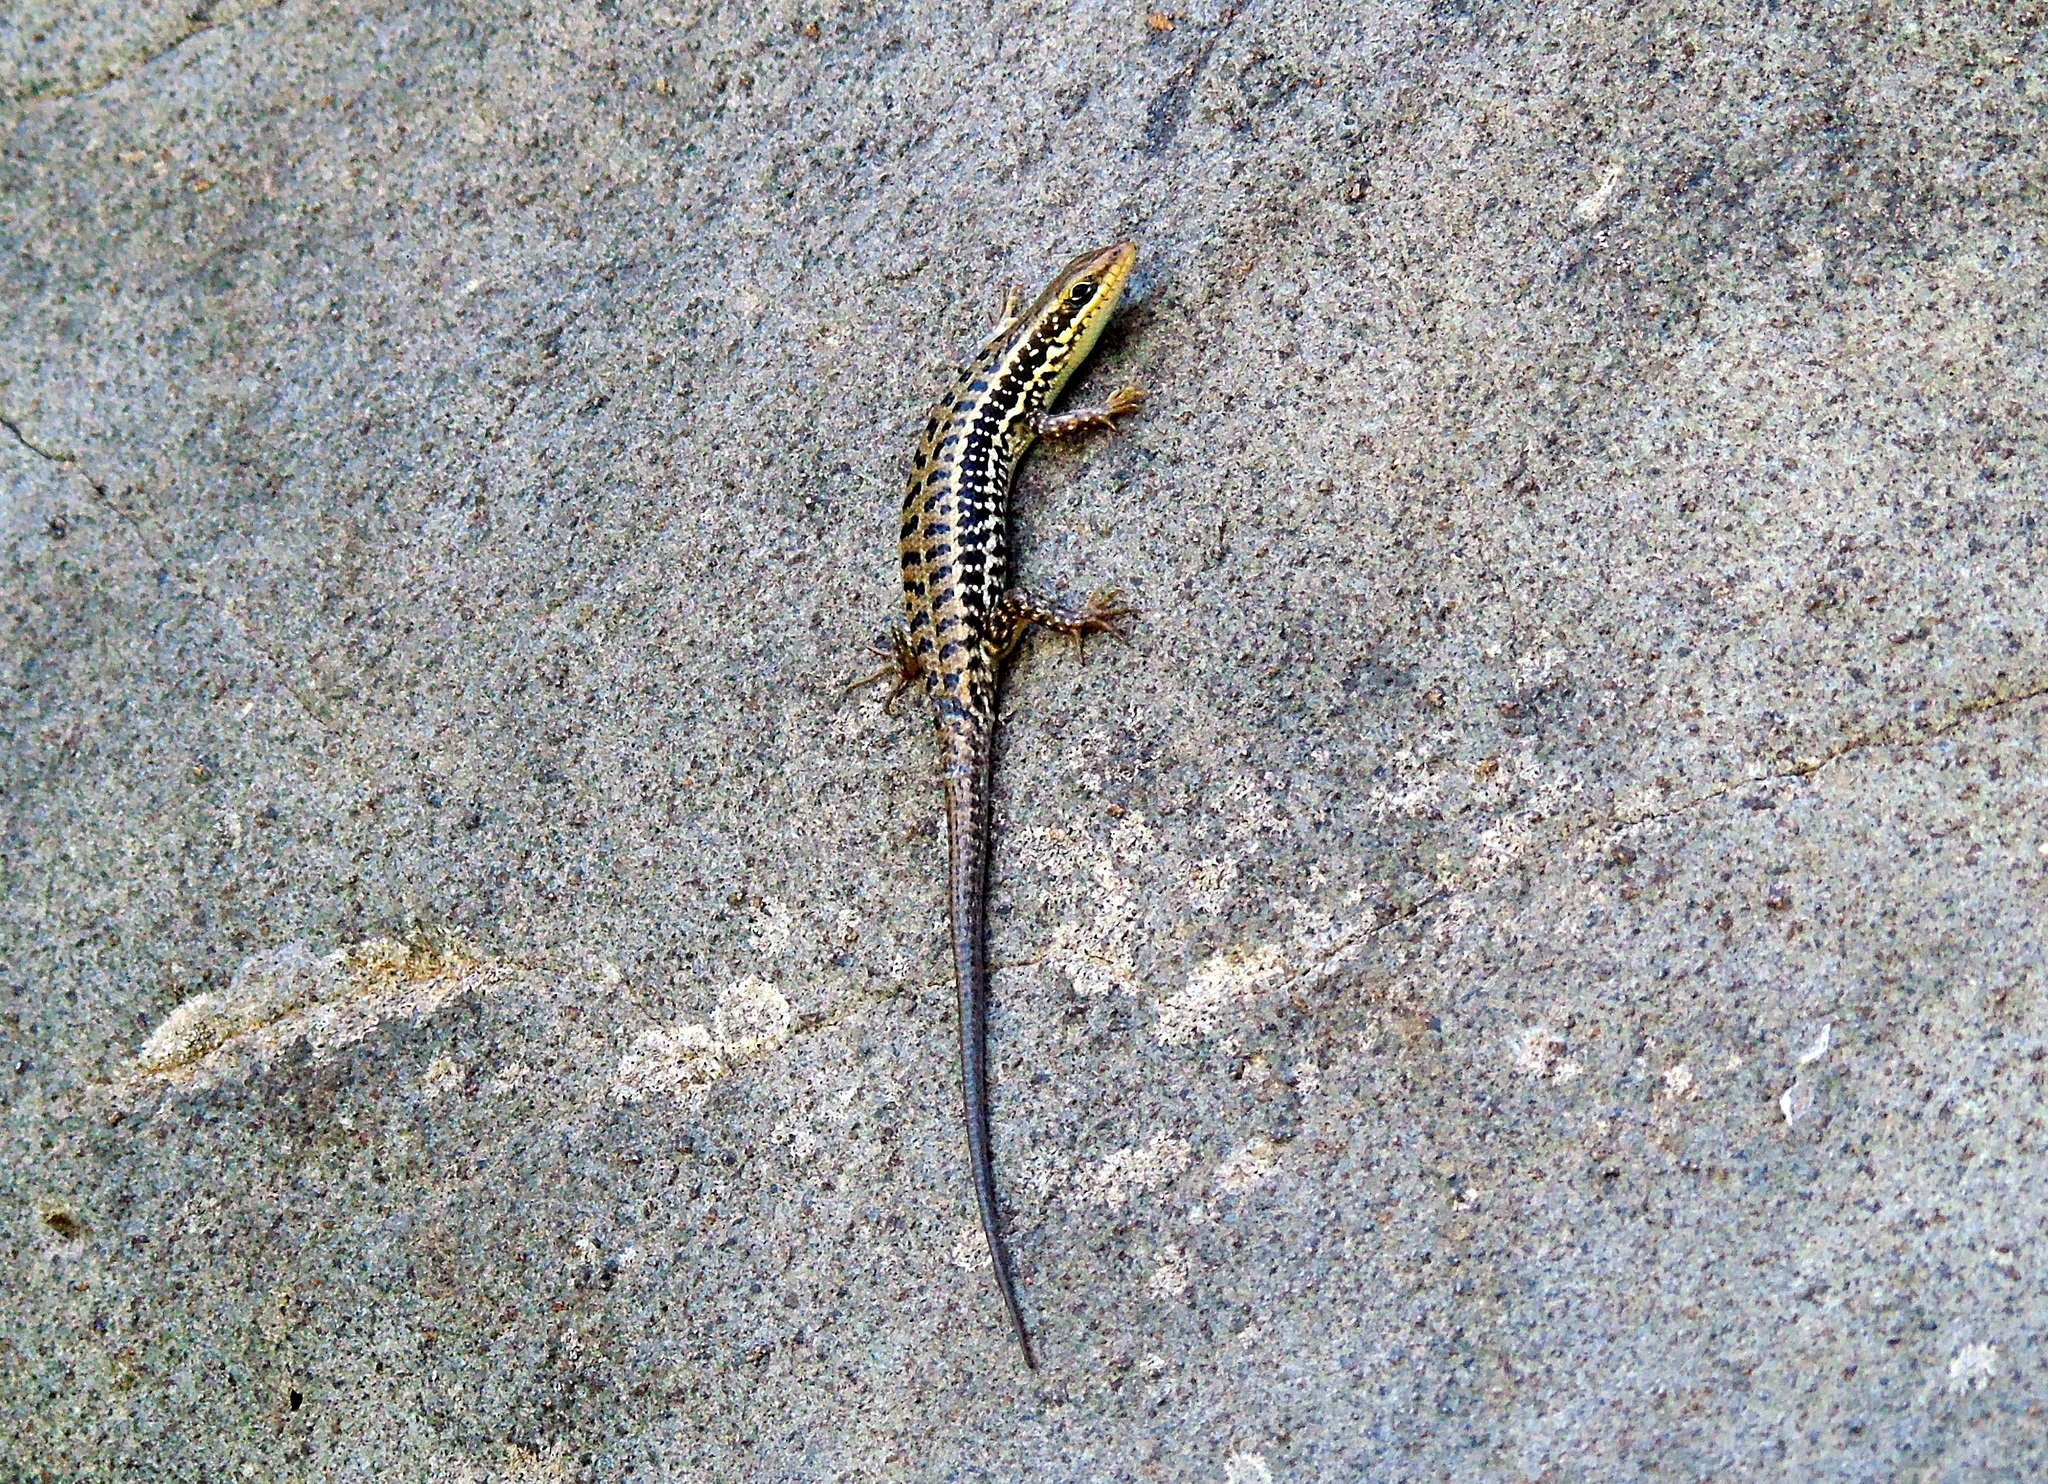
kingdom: Animalia
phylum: Chordata
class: Squamata
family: Scincidae
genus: Heremites
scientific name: Heremites auratus
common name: Golden grass mabuya
